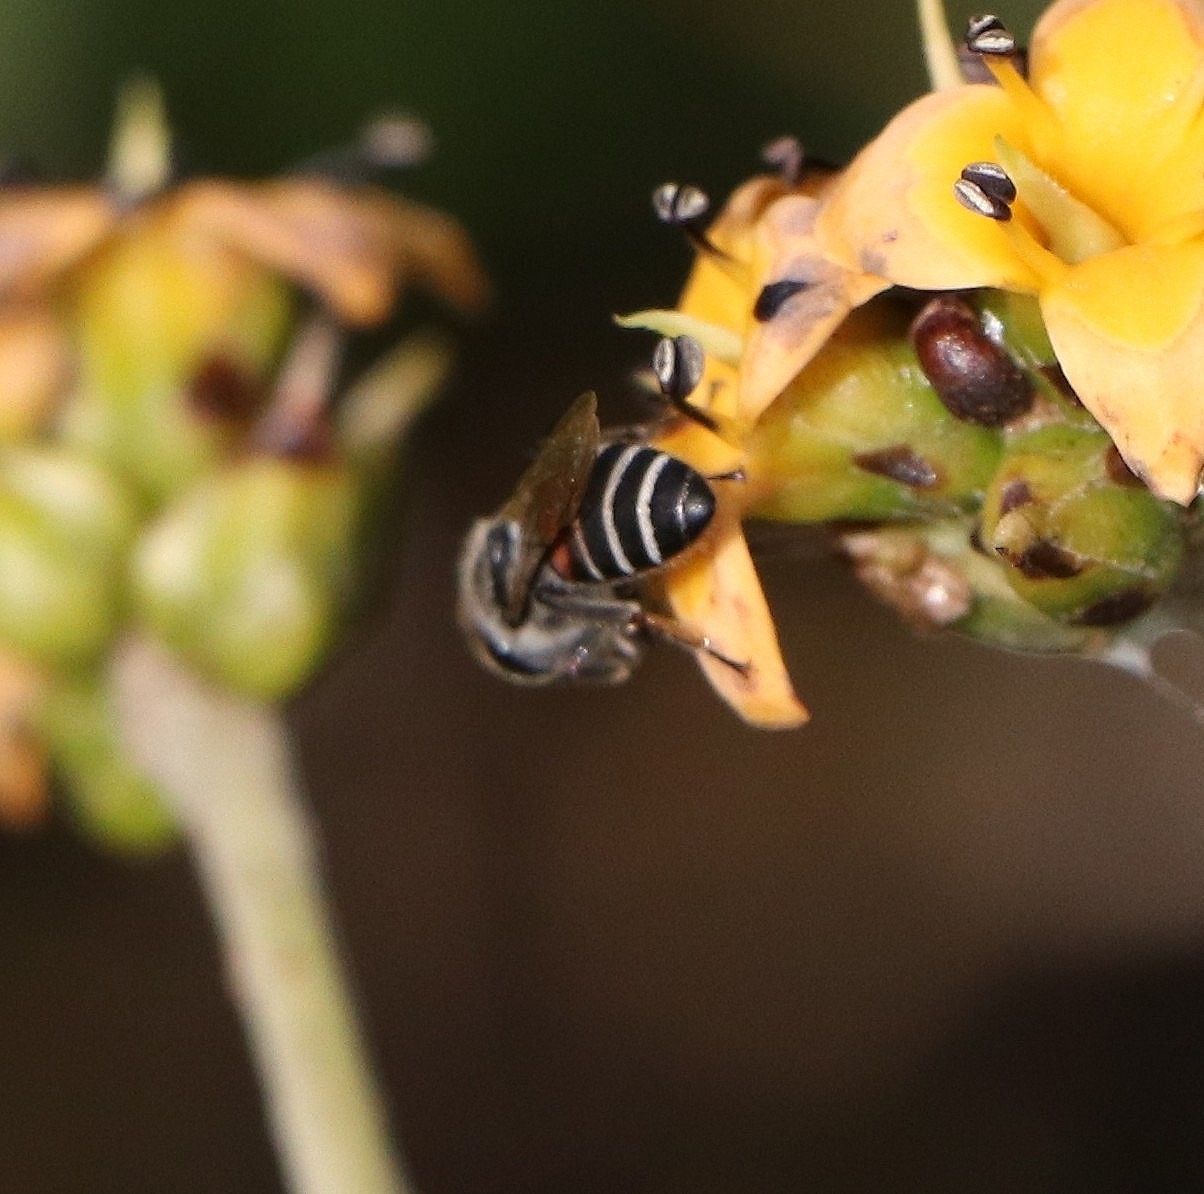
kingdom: Animalia
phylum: Arthropoda
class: Insecta
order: Hymenoptera
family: Apidae
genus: Apis
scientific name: Apis florea
